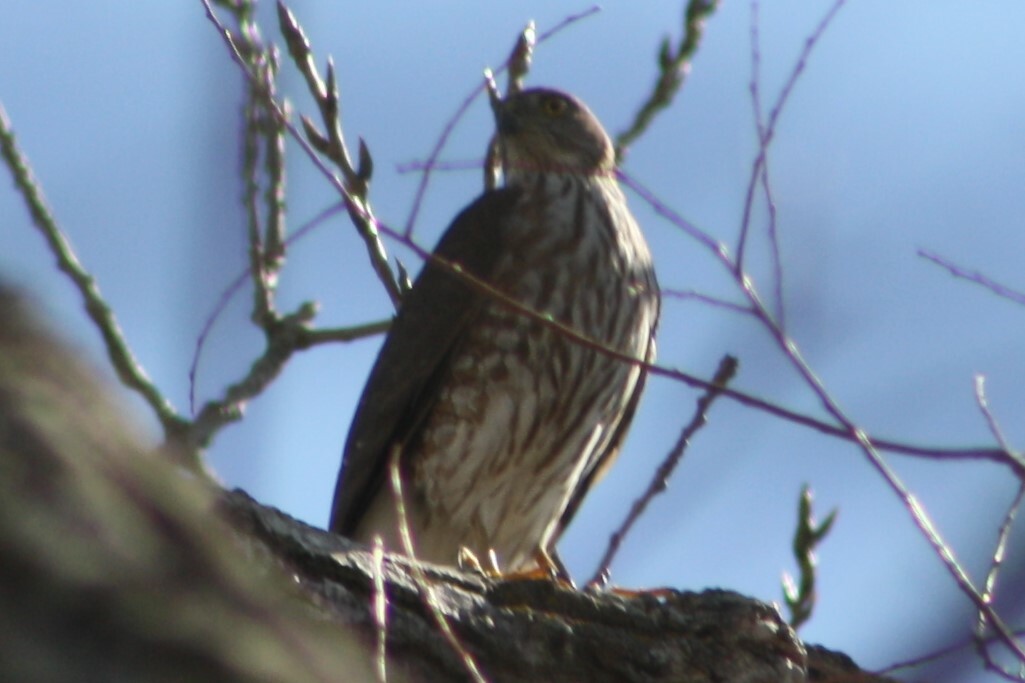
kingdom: Animalia
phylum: Chordata
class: Aves
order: Accipitriformes
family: Accipitridae
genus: Accipiter
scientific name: Accipiter striatus
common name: Sharp-shinned hawk
